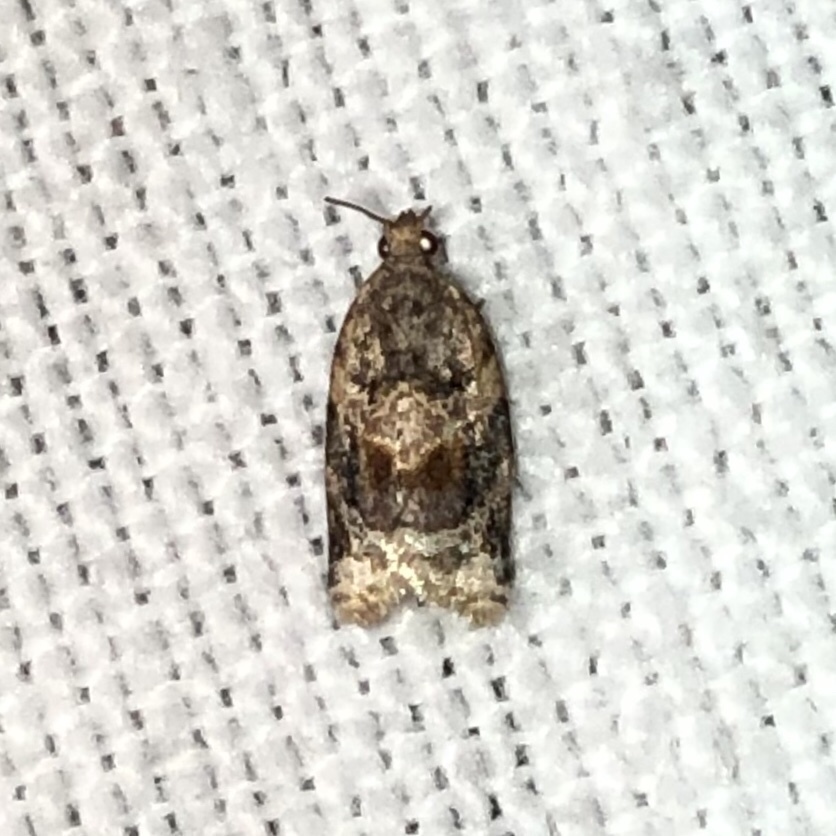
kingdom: Animalia
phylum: Arthropoda
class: Insecta
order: Lepidoptera
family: Tortricidae
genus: Argyrotaenia
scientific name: Argyrotaenia velutinana
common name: Red-banded leafroller moth
